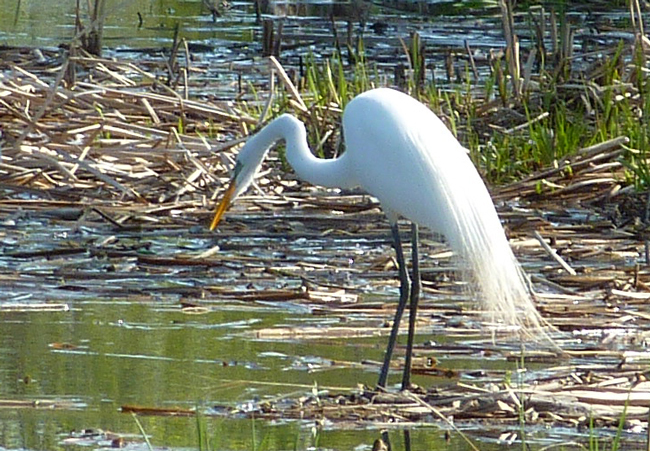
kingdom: Animalia
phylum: Chordata
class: Aves
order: Pelecaniformes
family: Ardeidae
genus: Ardea
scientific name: Ardea alba
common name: Great egret
